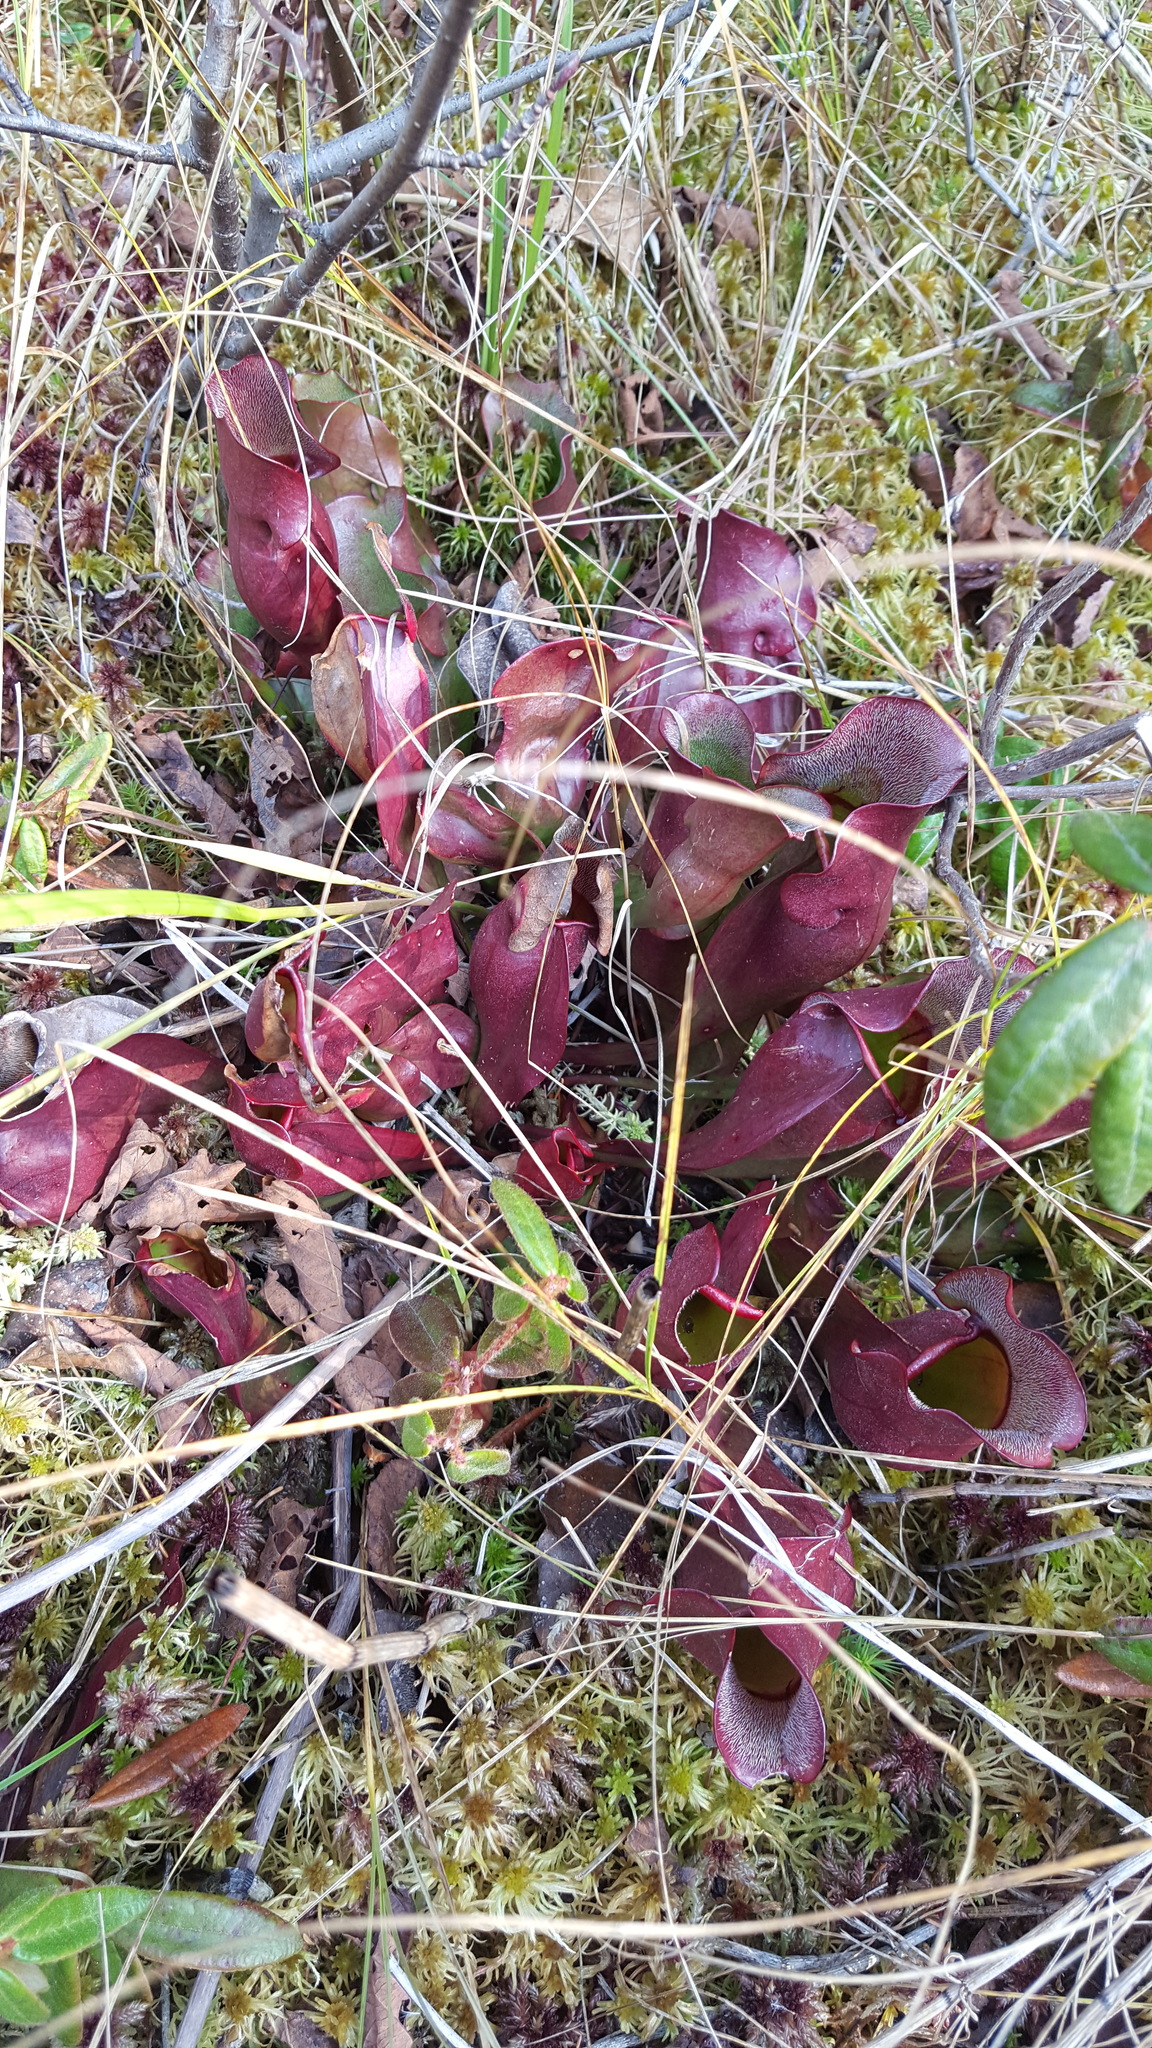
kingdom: Plantae
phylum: Tracheophyta
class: Magnoliopsida
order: Ericales
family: Sarraceniaceae
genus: Sarracenia
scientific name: Sarracenia purpurea
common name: Pitcherplant
